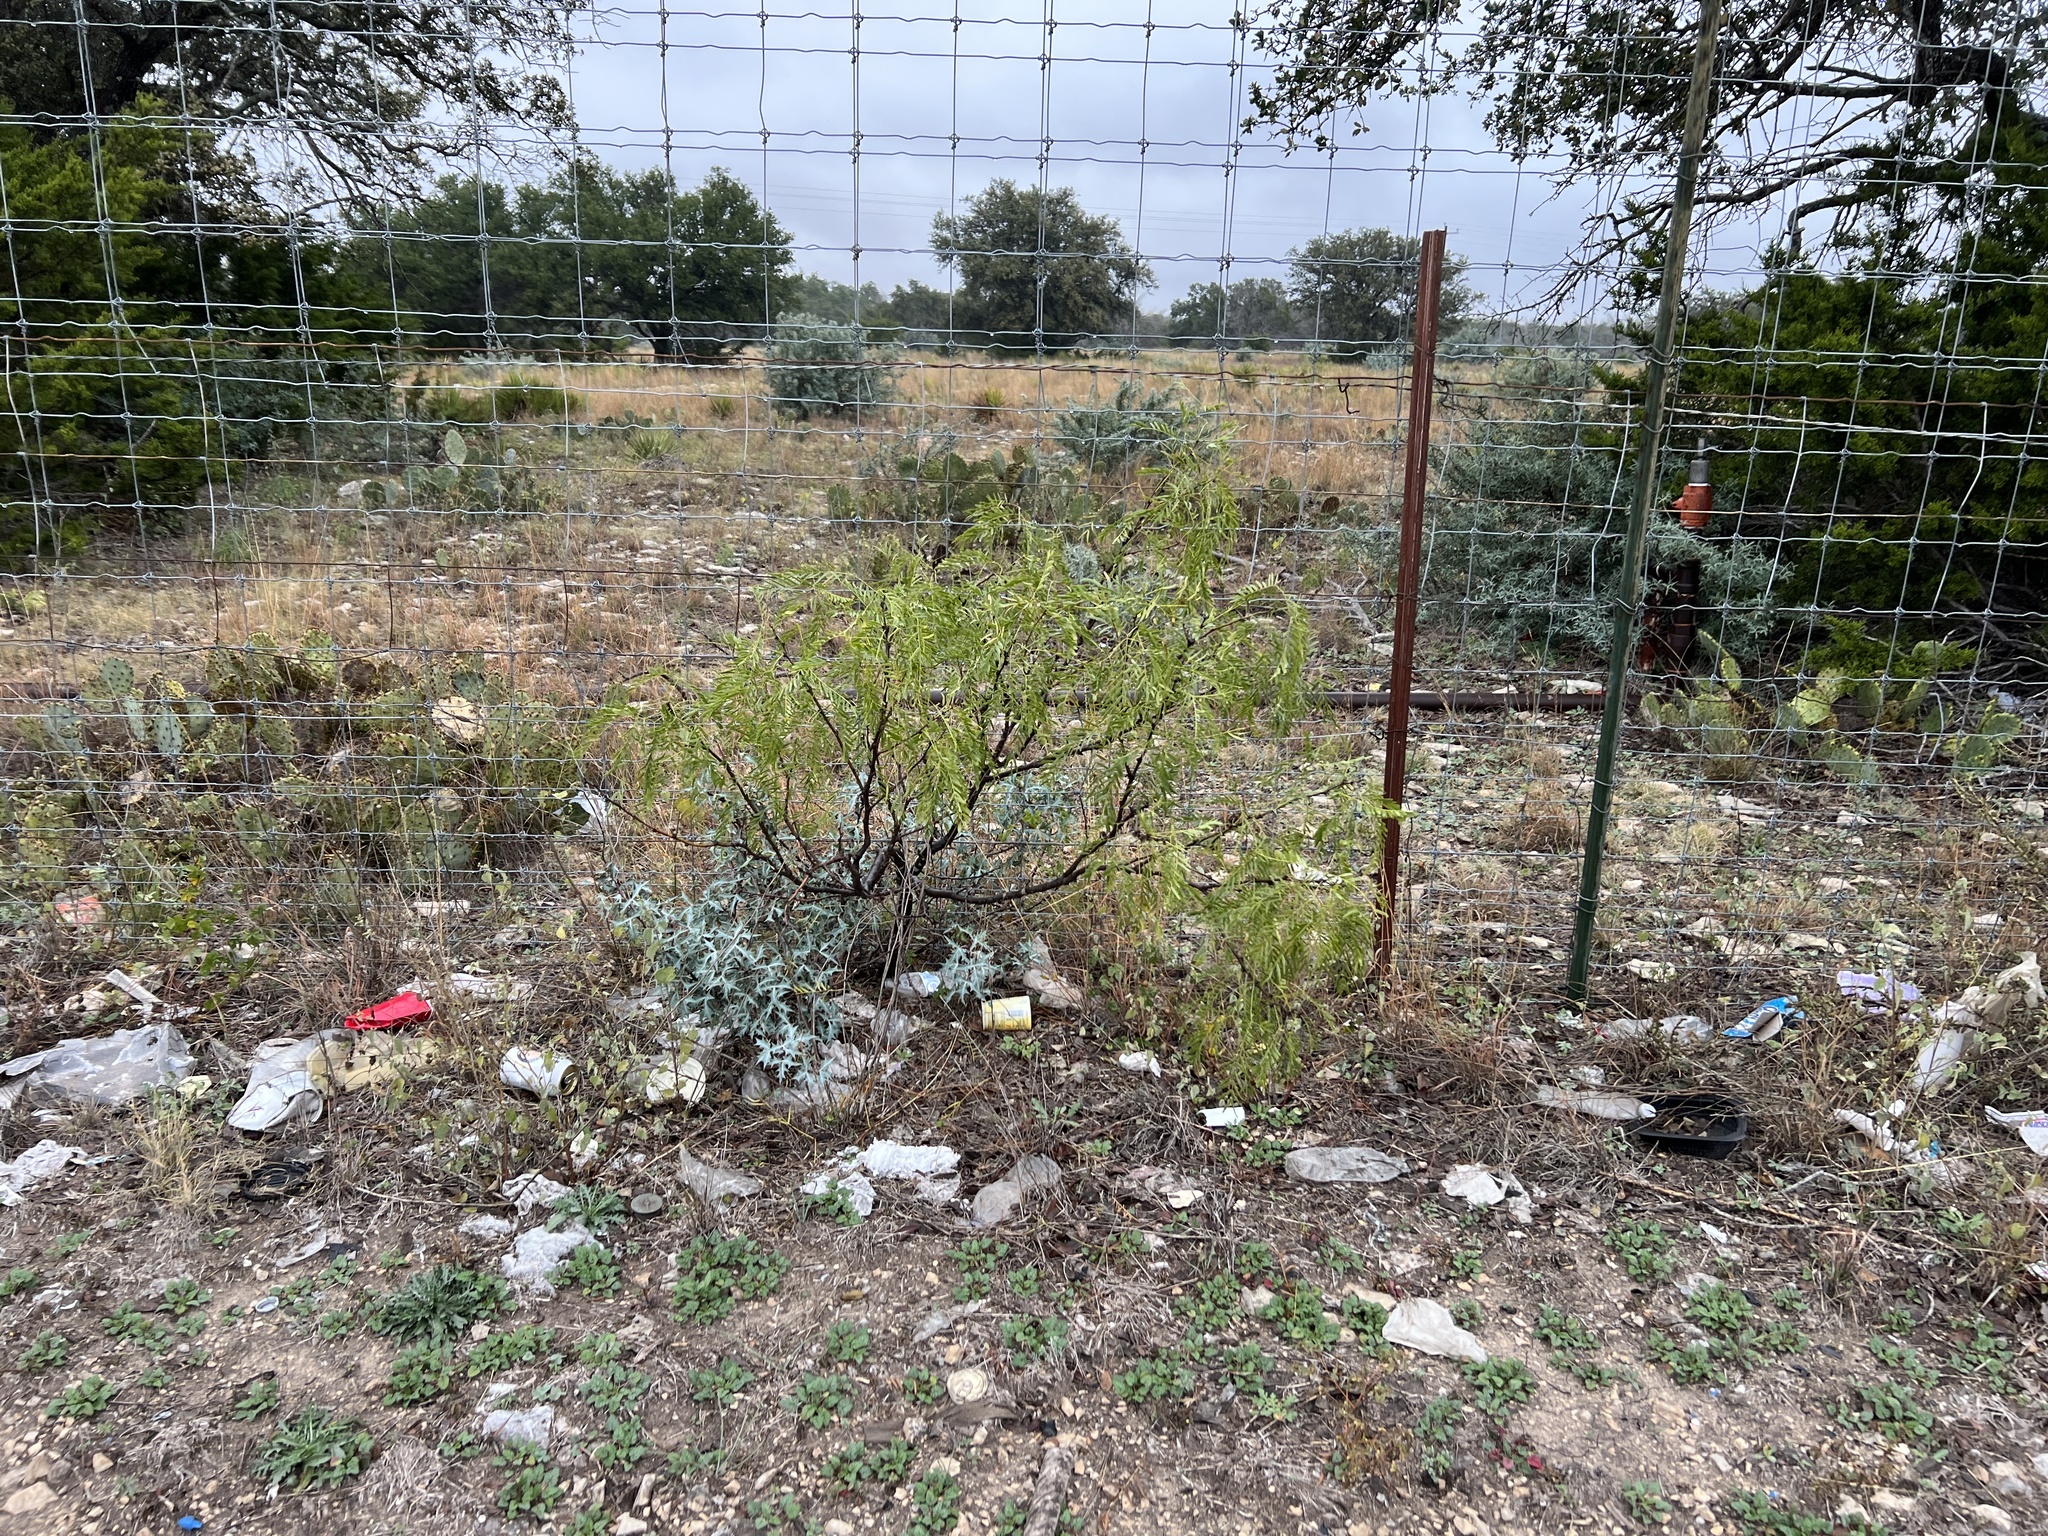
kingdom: Plantae
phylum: Tracheophyta
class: Magnoliopsida
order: Fabales
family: Fabaceae
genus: Prosopis
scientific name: Prosopis glandulosa
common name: Honey mesquite
